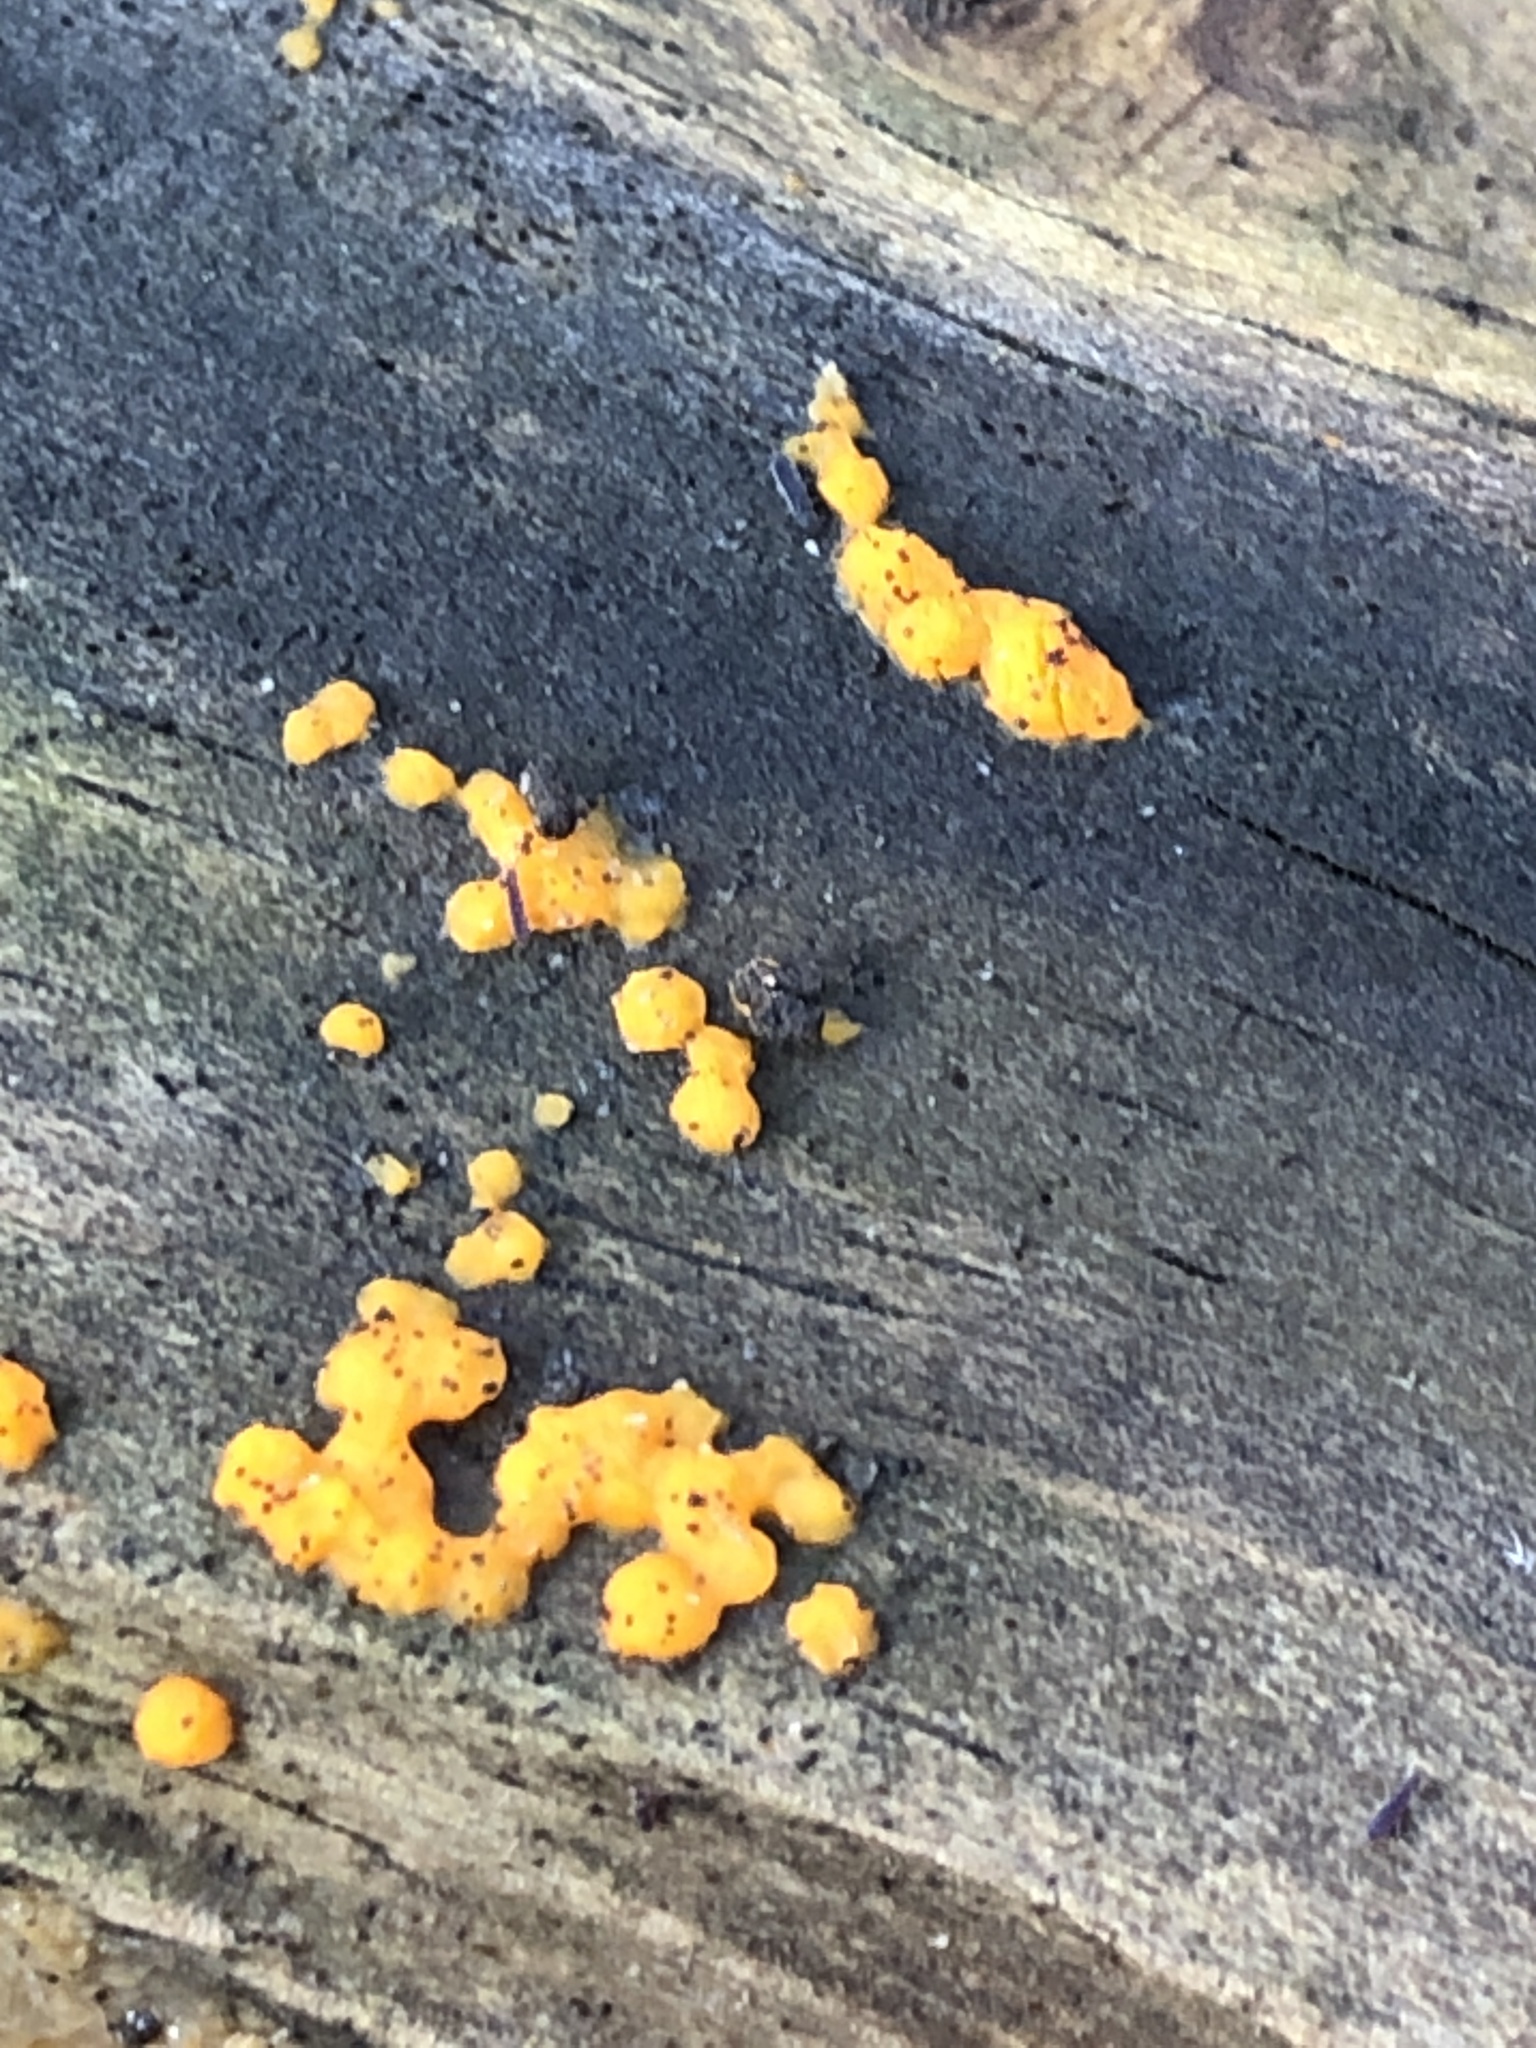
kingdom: Fungi
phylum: Basidiomycota
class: Dacrymycetes
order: Dacrymycetales
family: Dacrymycetaceae
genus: Dacrymyces
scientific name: Dacrymyces stillatus
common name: Common jelly spot
